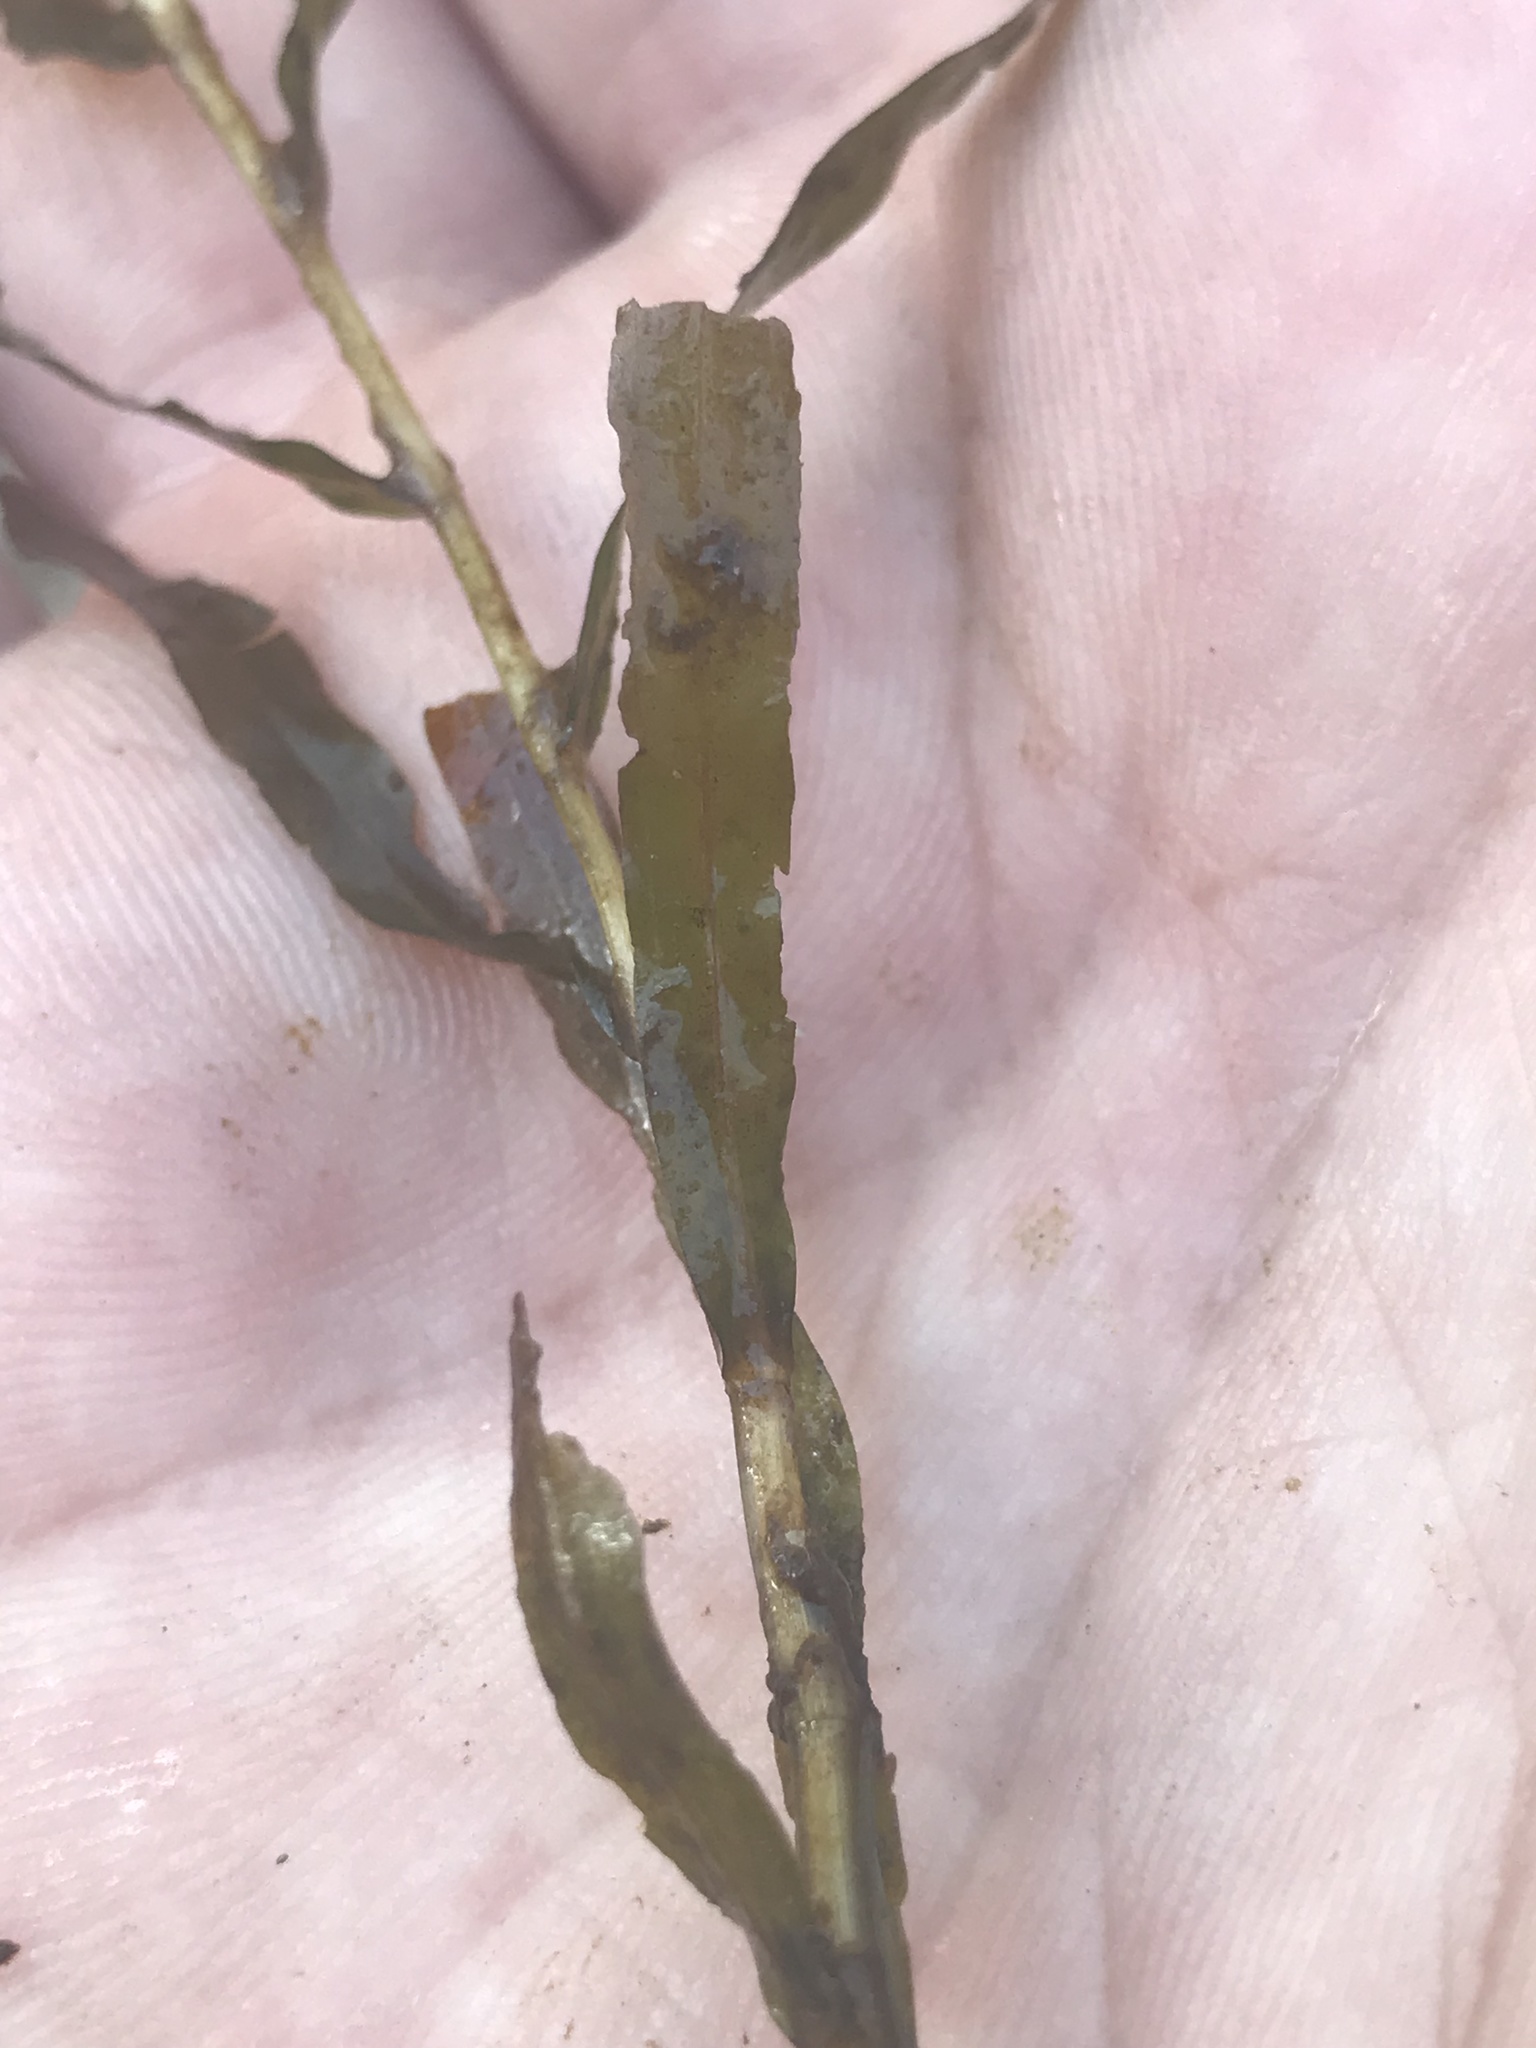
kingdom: Plantae
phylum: Tracheophyta
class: Liliopsida
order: Alismatales
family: Potamogetonaceae
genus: Potamogeton
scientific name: Potamogeton crispus
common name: Curled pondweed
